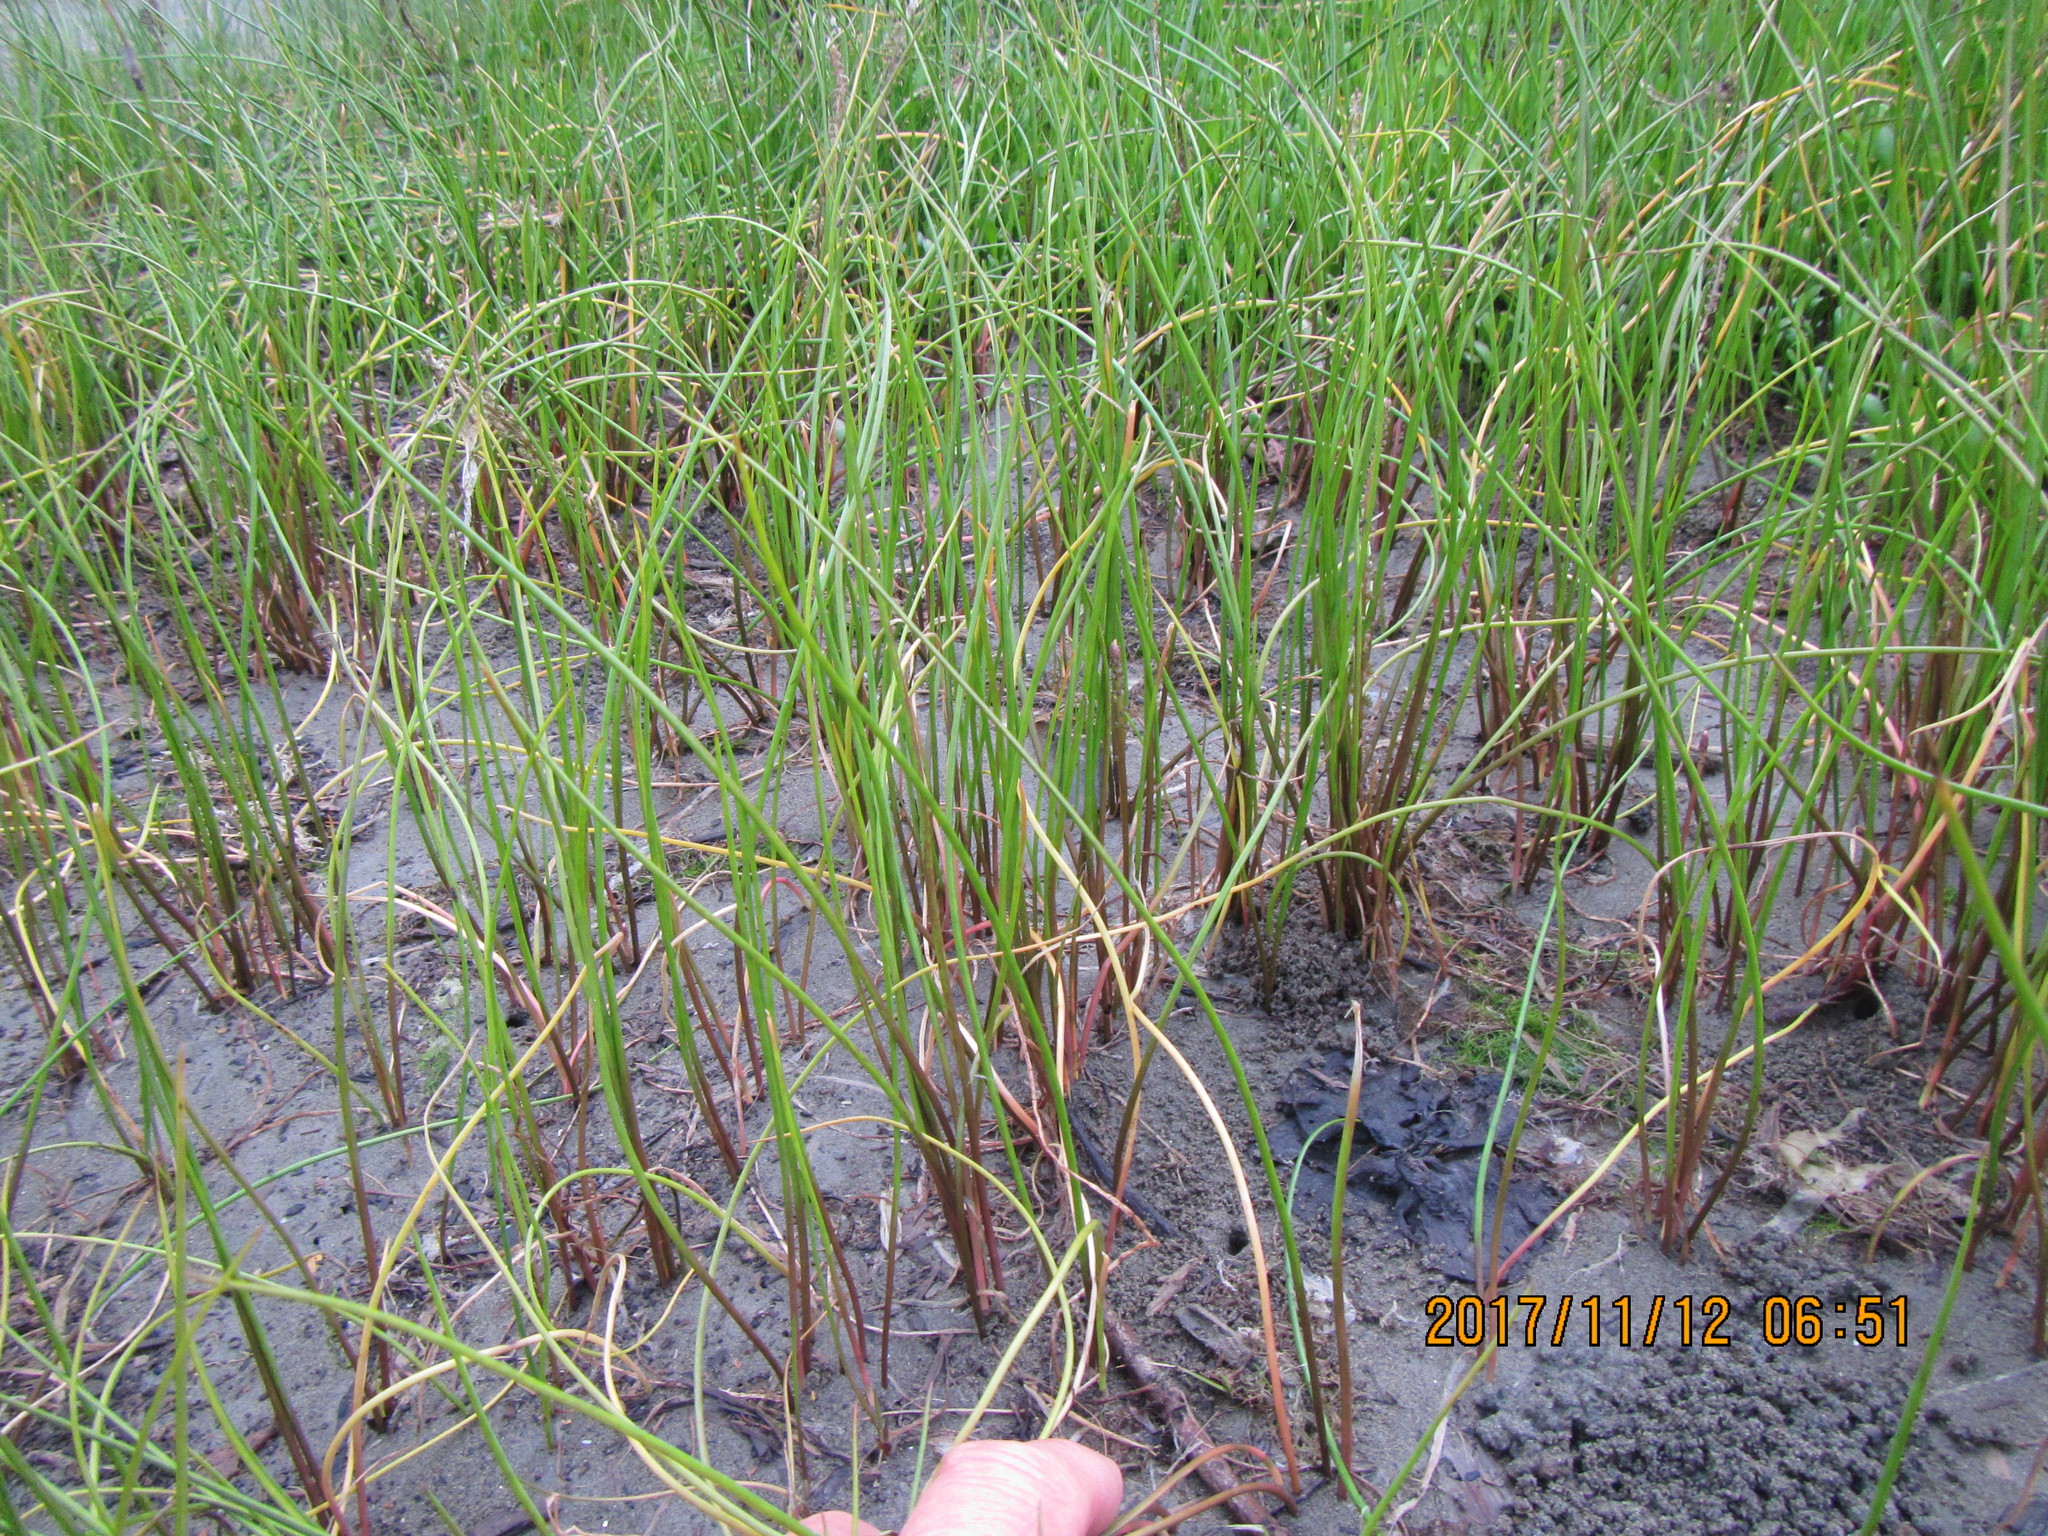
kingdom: Plantae
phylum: Tracheophyta
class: Liliopsida
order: Poales
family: Cyperaceae
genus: Schoenoplectus
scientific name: Schoenoplectus pungens
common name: Sharp club-rush
